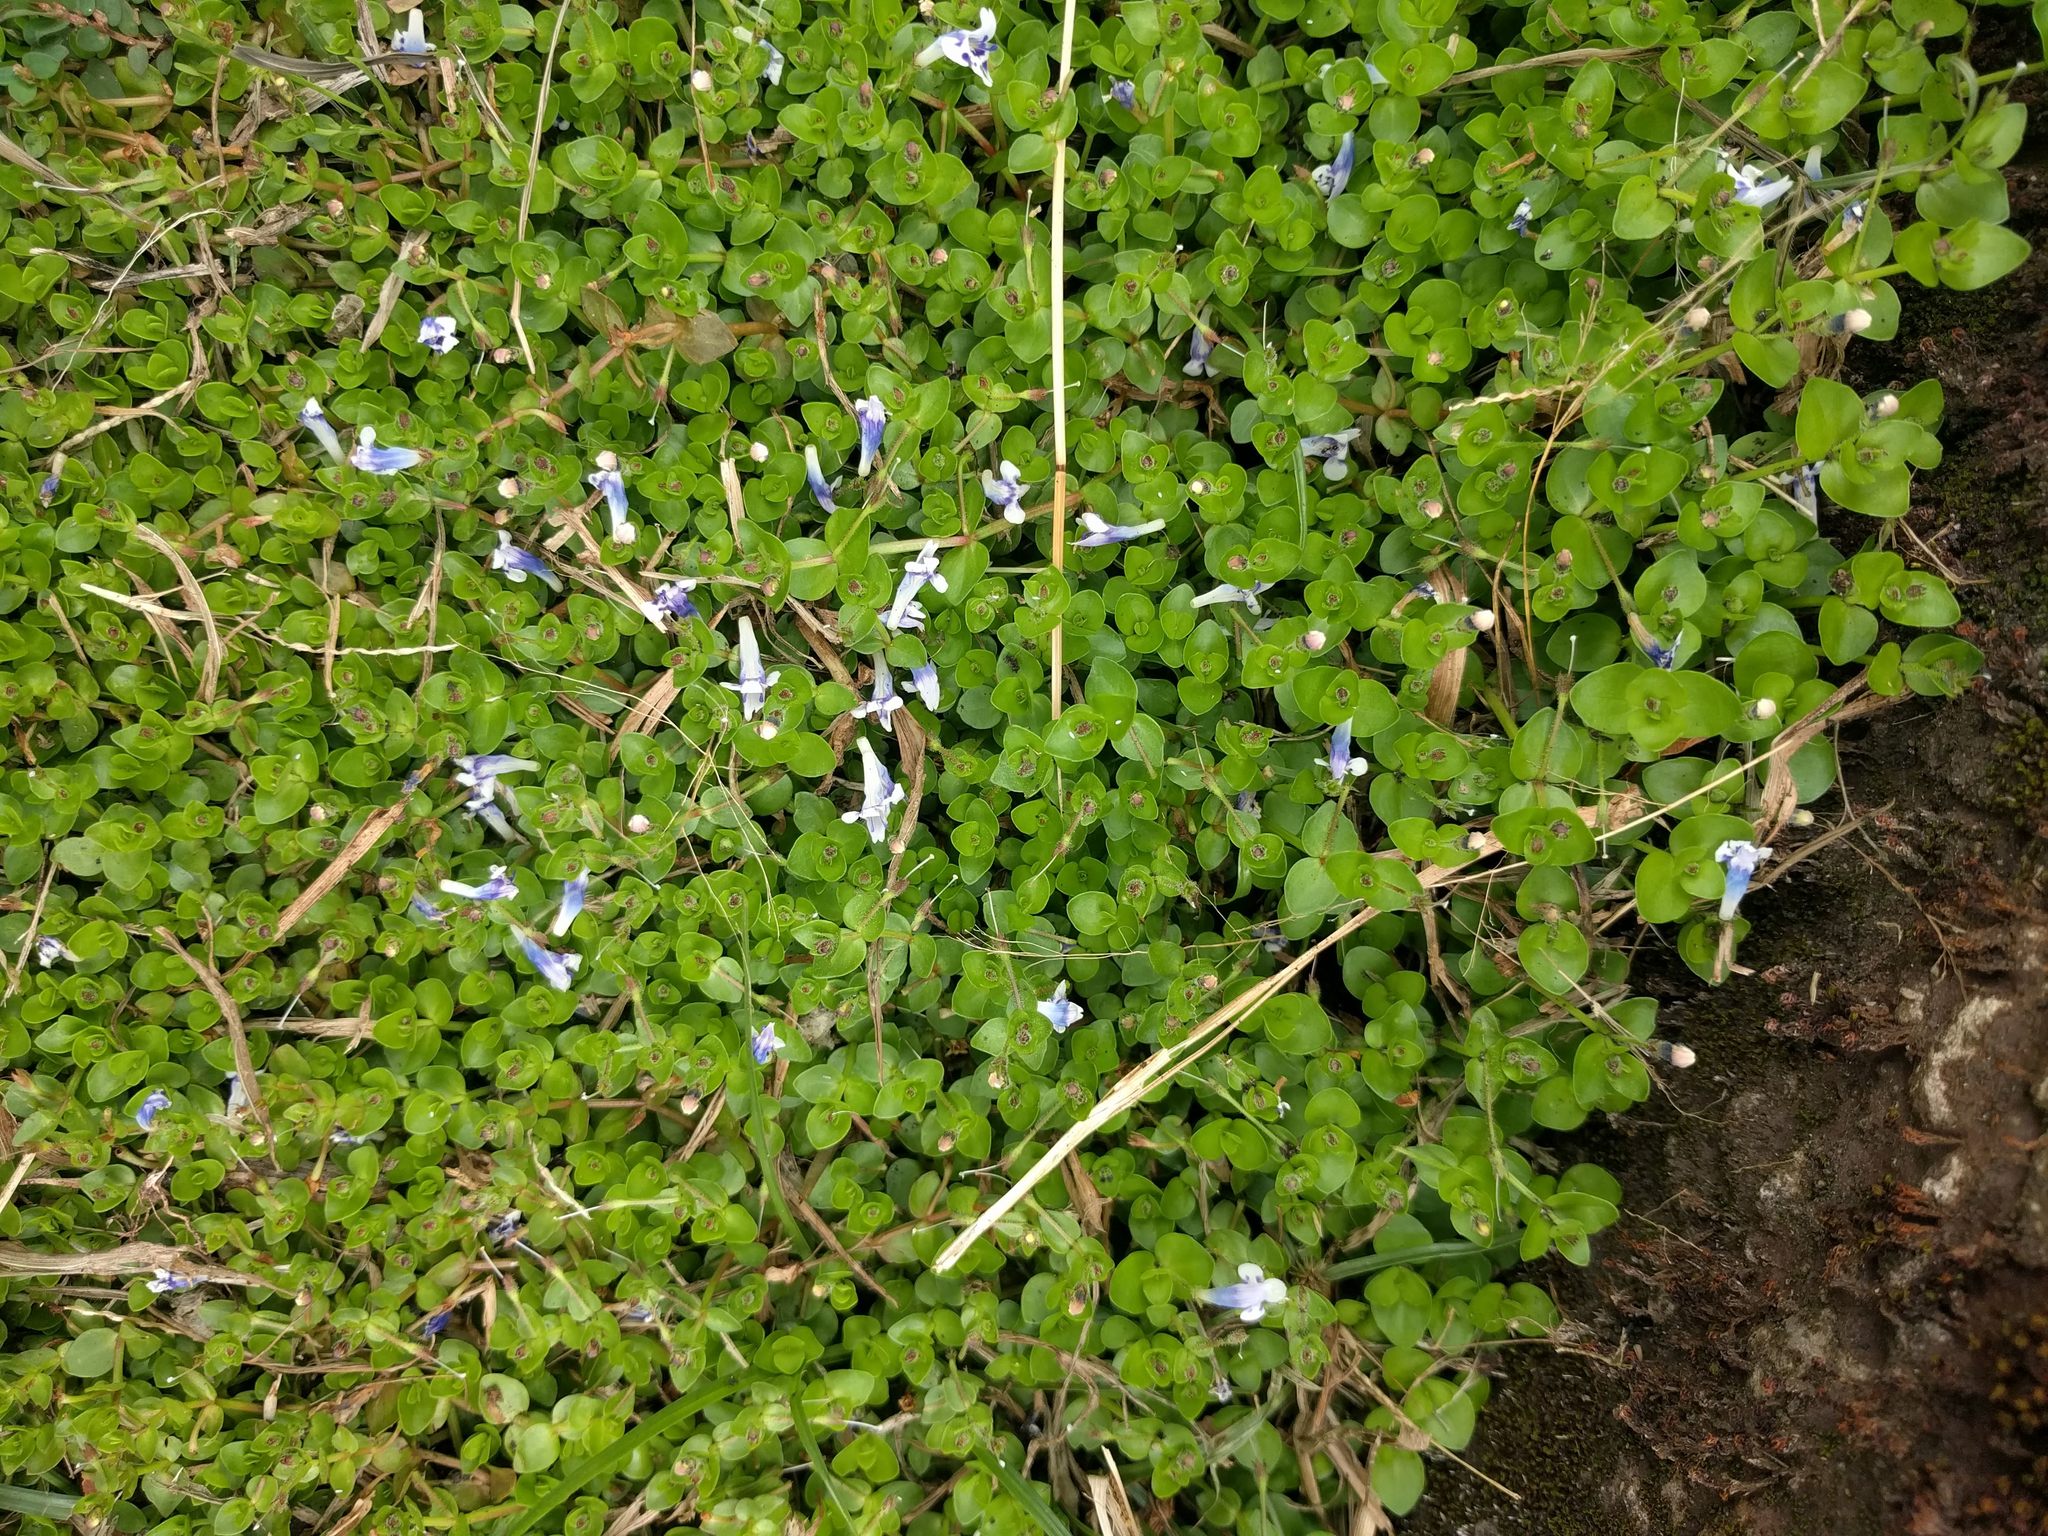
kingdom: Plantae
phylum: Tracheophyta
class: Magnoliopsida
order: Lamiales
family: Linderniaceae
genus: Lindernia
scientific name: Lindernia rotundifolia
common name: Baby’s tears
